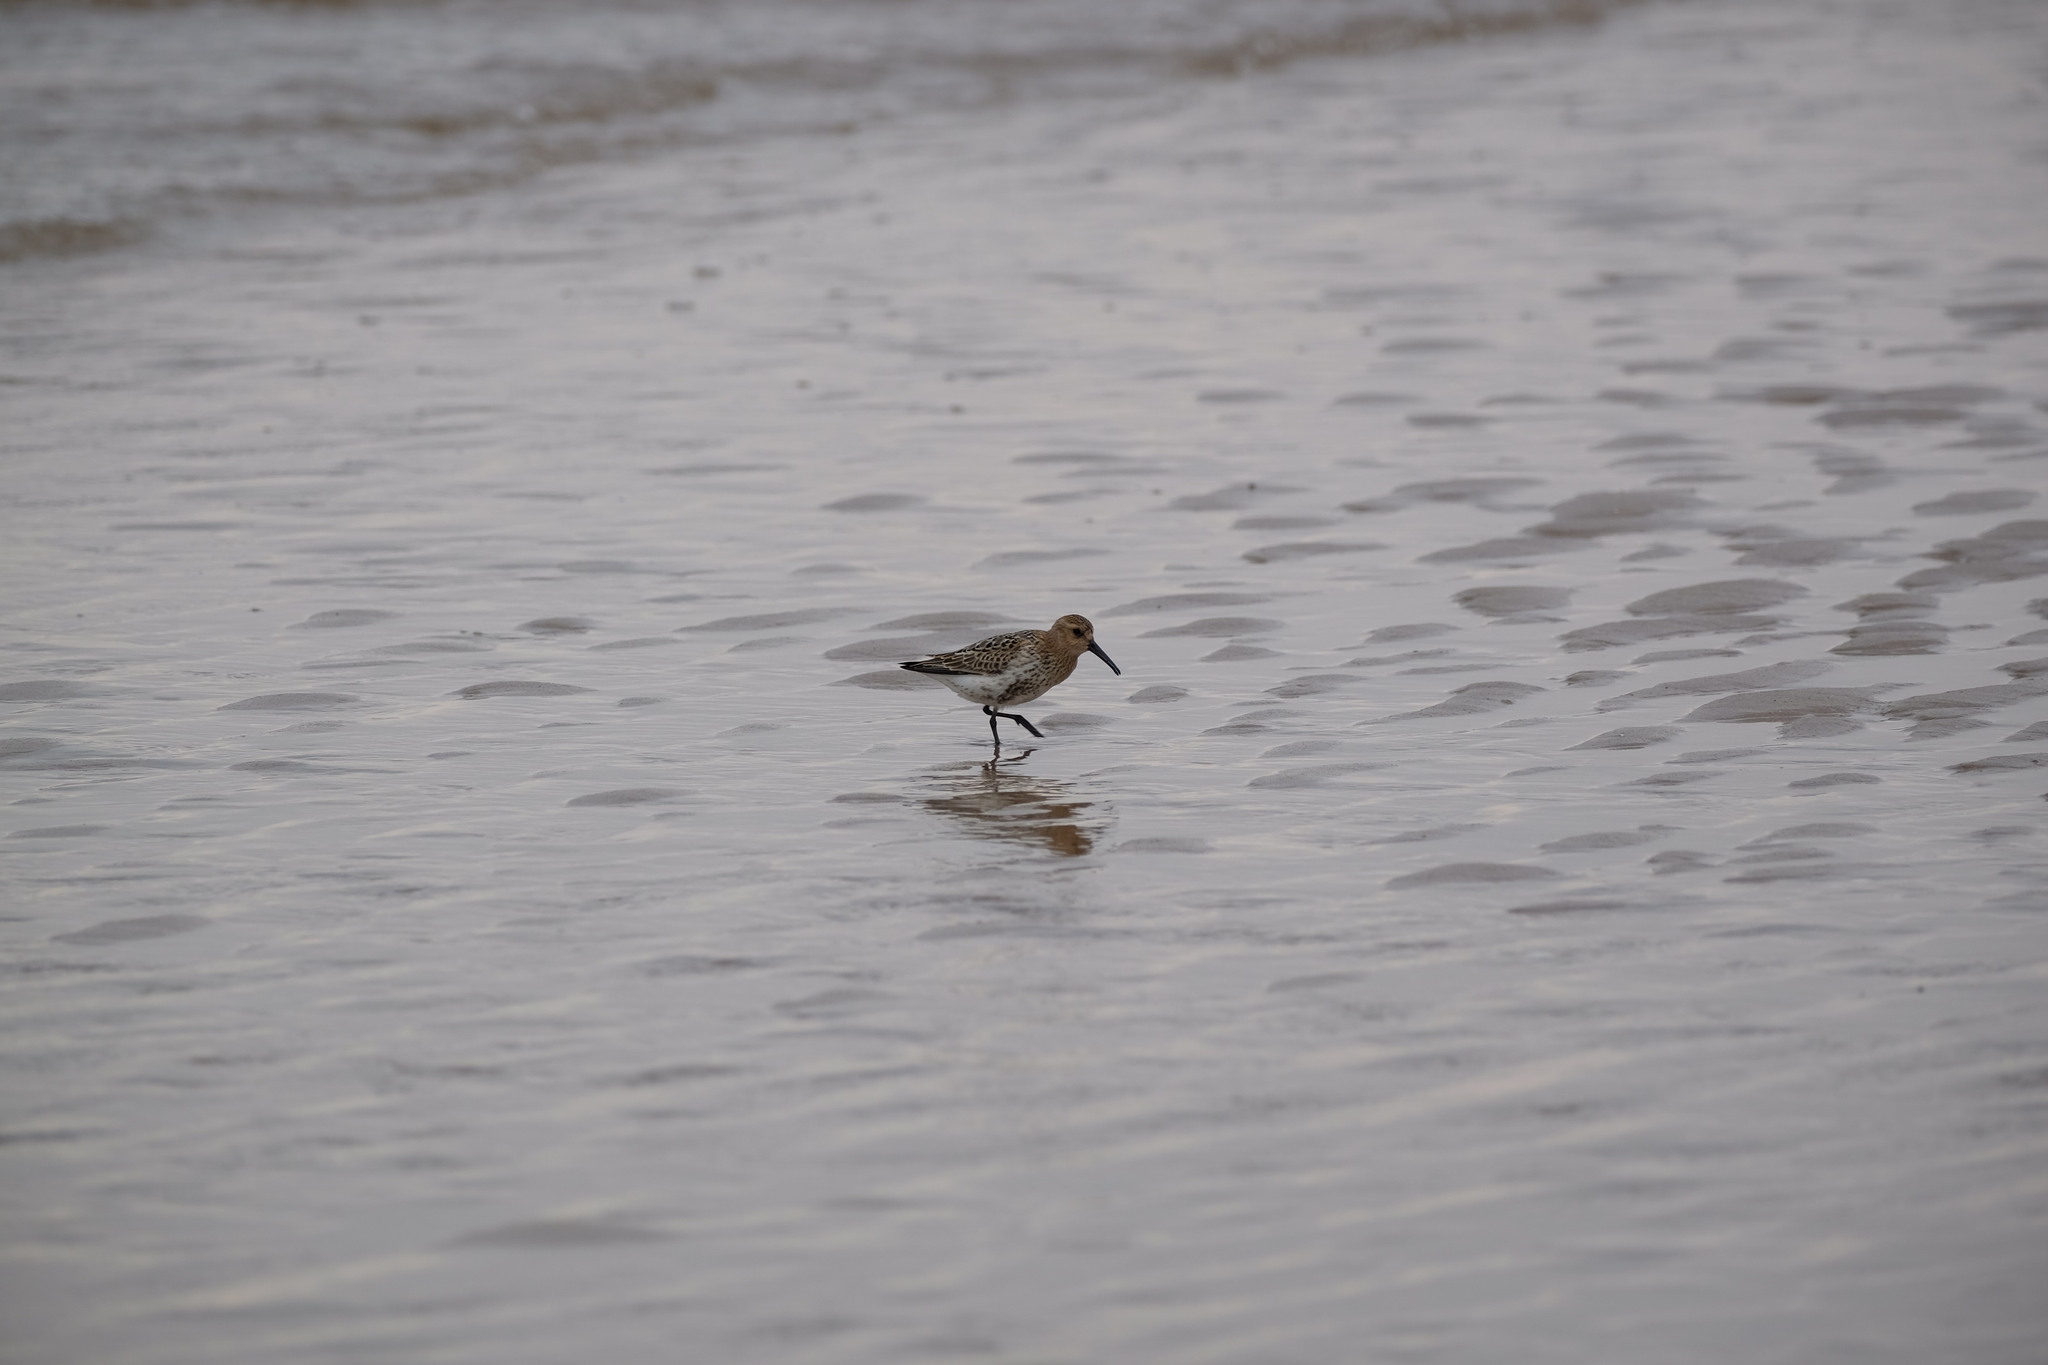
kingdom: Animalia
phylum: Chordata
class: Aves
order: Charadriiformes
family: Scolopacidae
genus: Calidris
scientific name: Calidris alpina
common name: Dunlin
